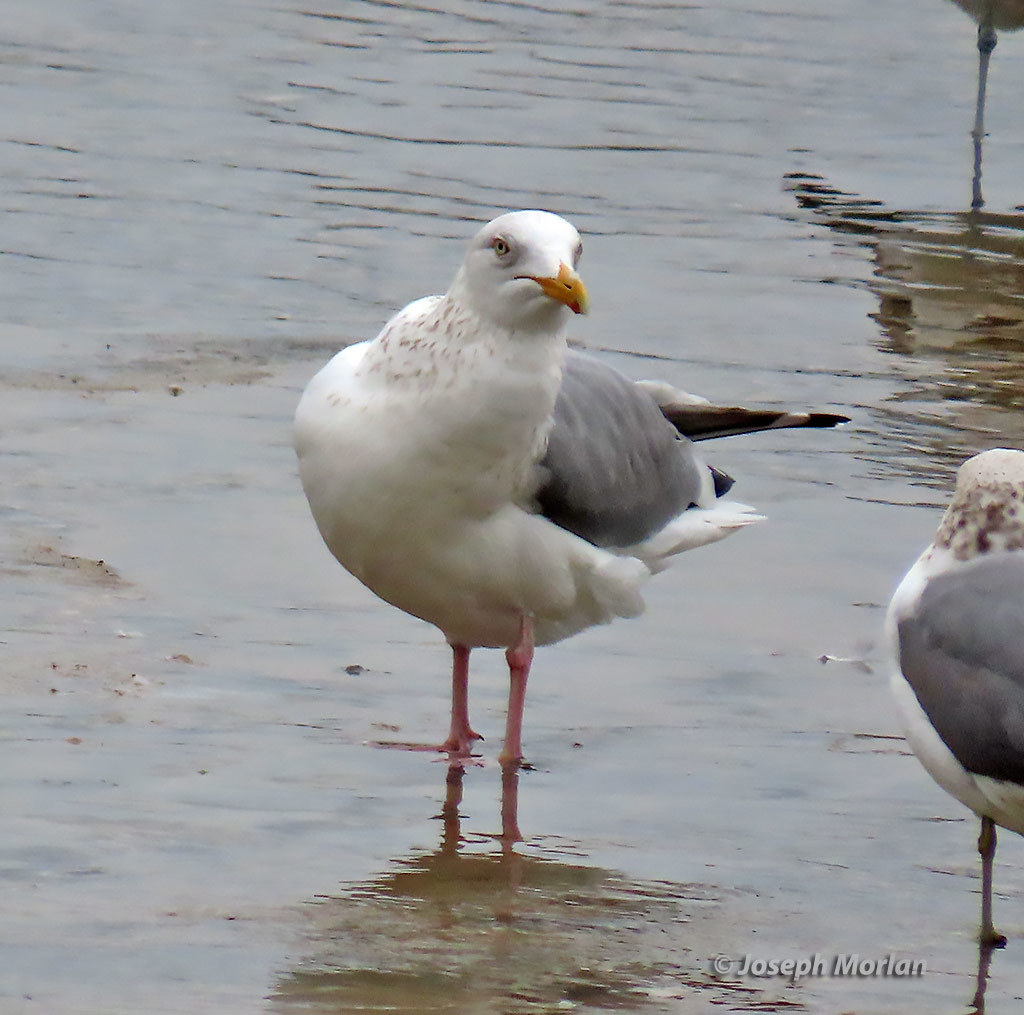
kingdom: Animalia
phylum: Chordata
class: Aves
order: Charadriiformes
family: Laridae
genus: Larus
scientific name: Larus argentatus
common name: Herring gull
